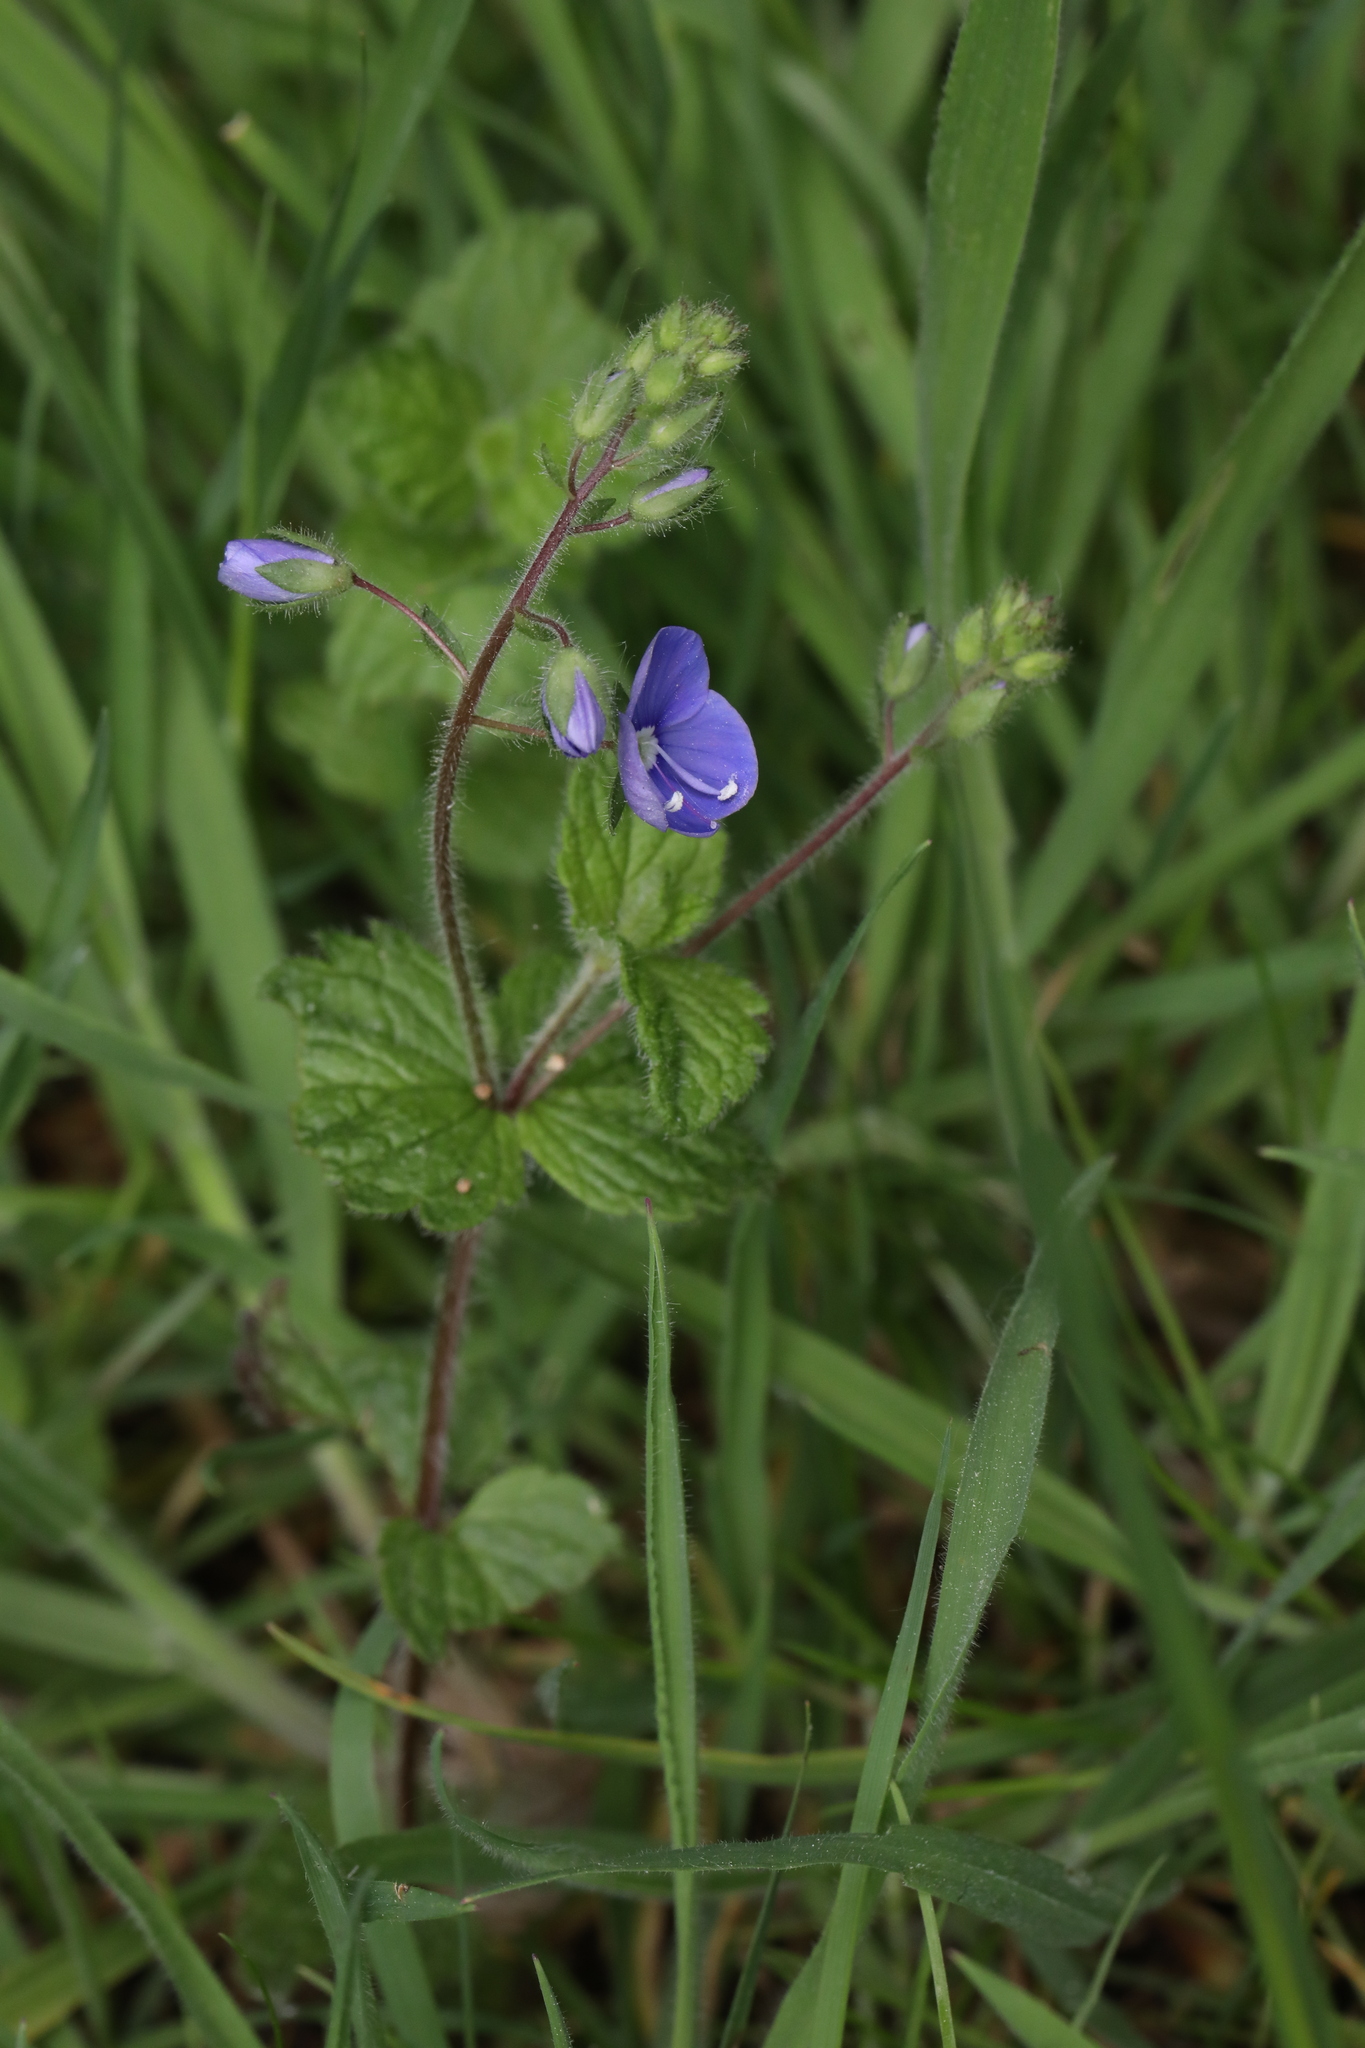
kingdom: Plantae
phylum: Tracheophyta
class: Magnoliopsida
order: Lamiales
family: Plantaginaceae
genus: Veronica
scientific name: Veronica chamaedrys
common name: Germander speedwell
